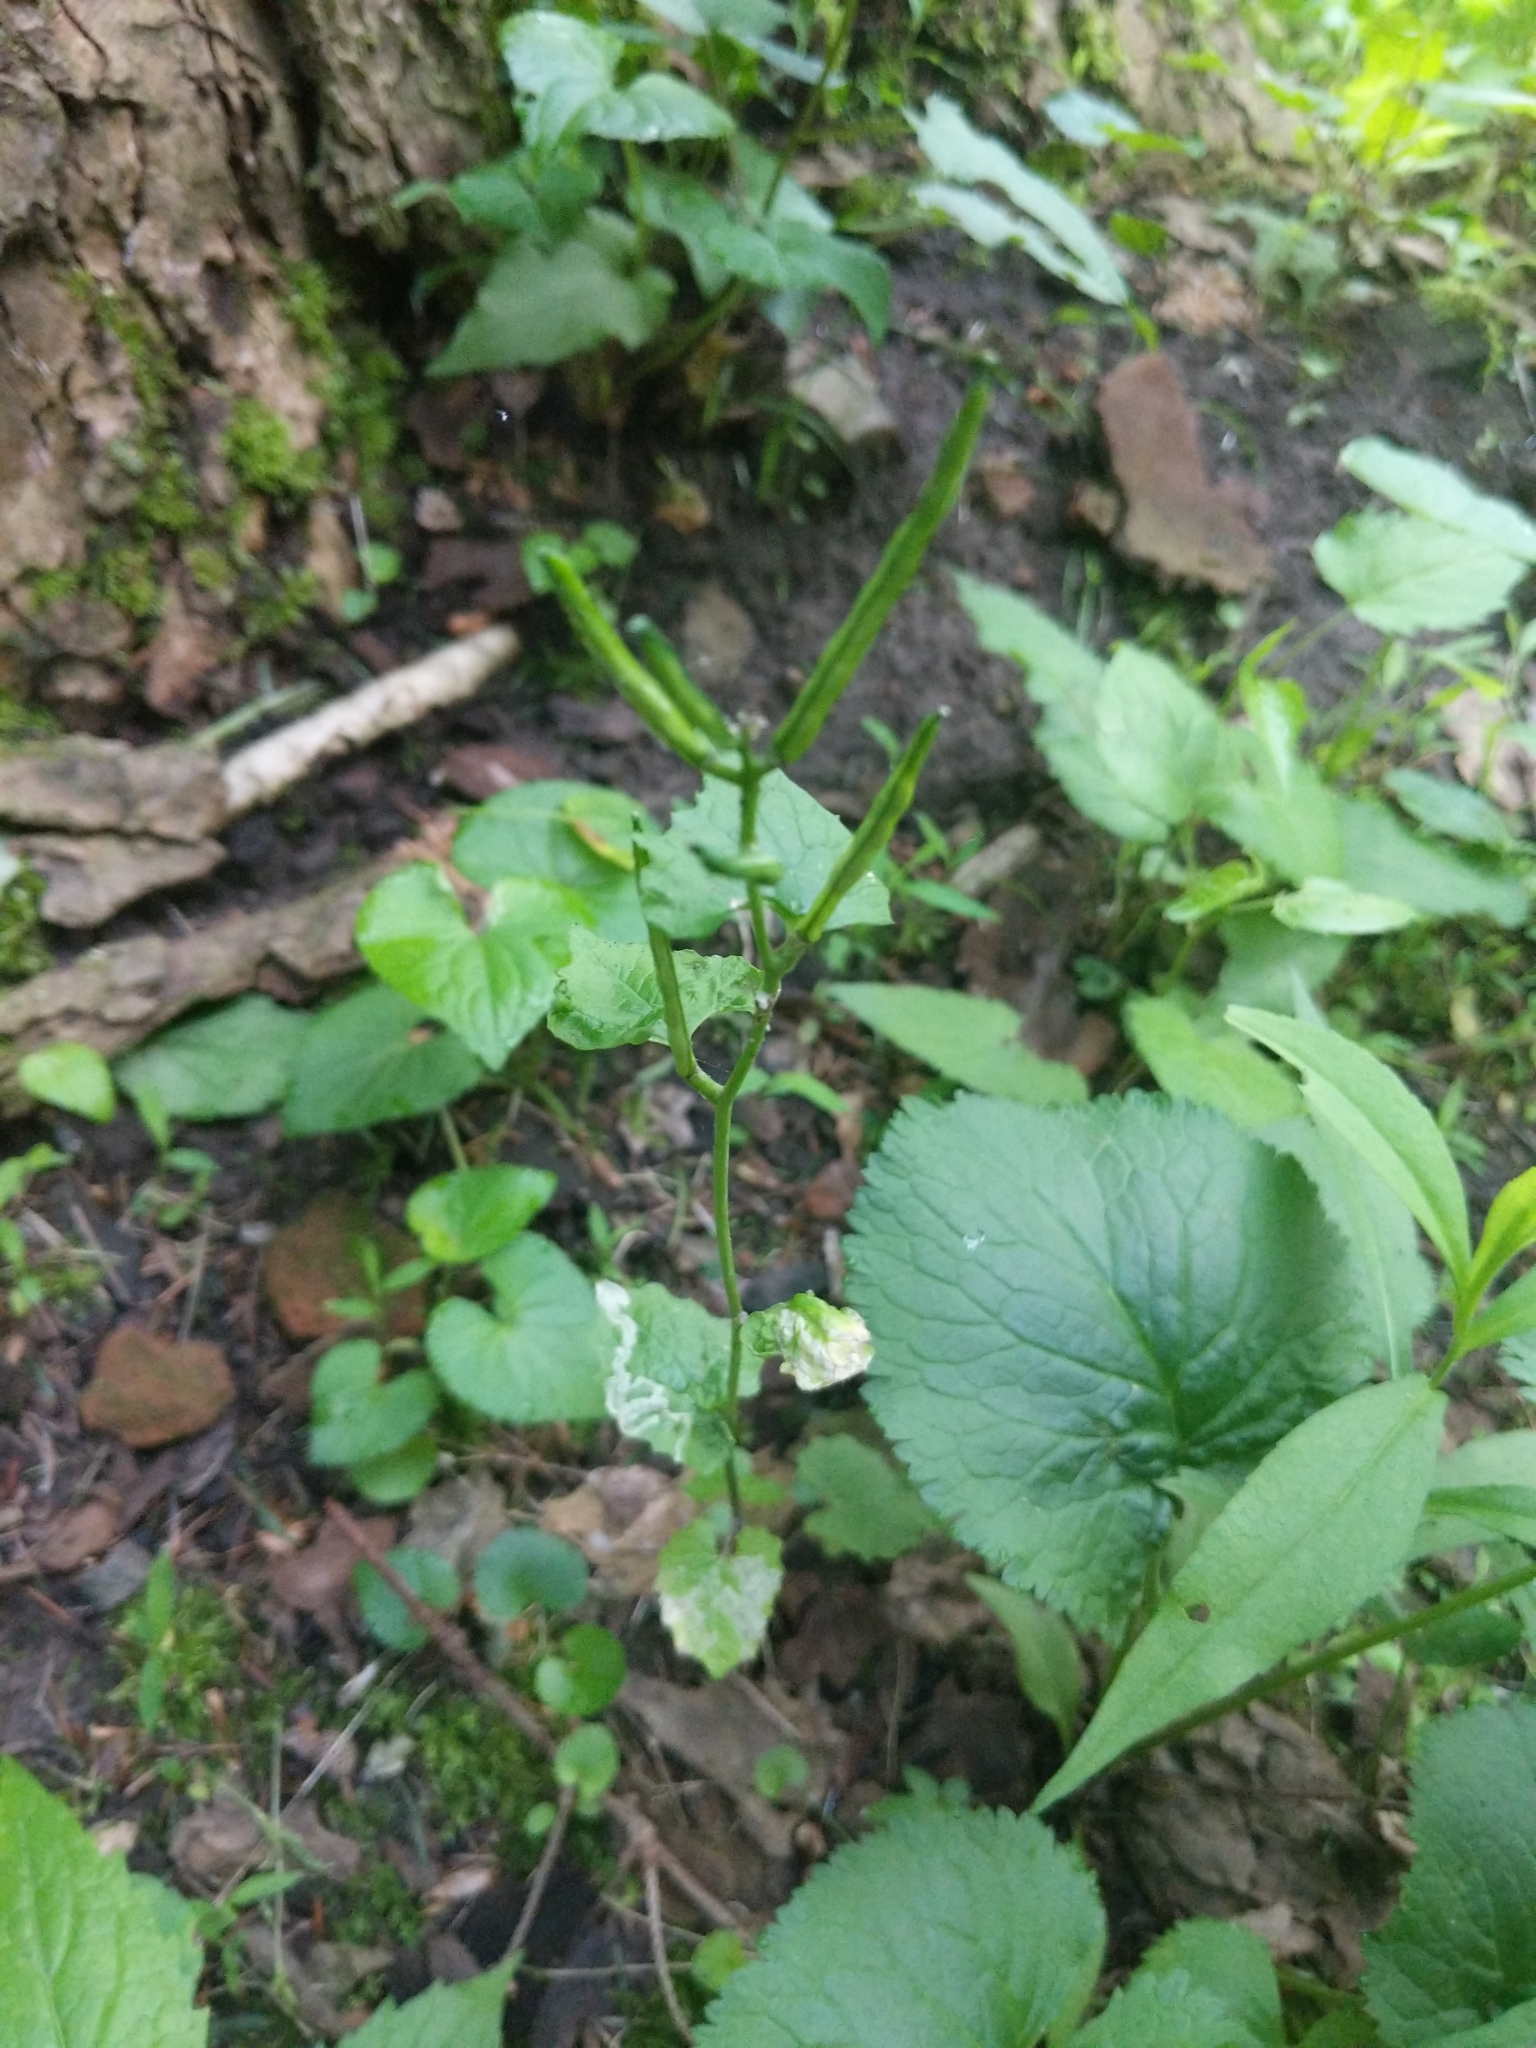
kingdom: Plantae
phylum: Tracheophyta
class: Magnoliopsida
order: Brassicales
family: Brassicaceae
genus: Alliaria
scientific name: Alliaria petiolata
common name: Garlic mustard
